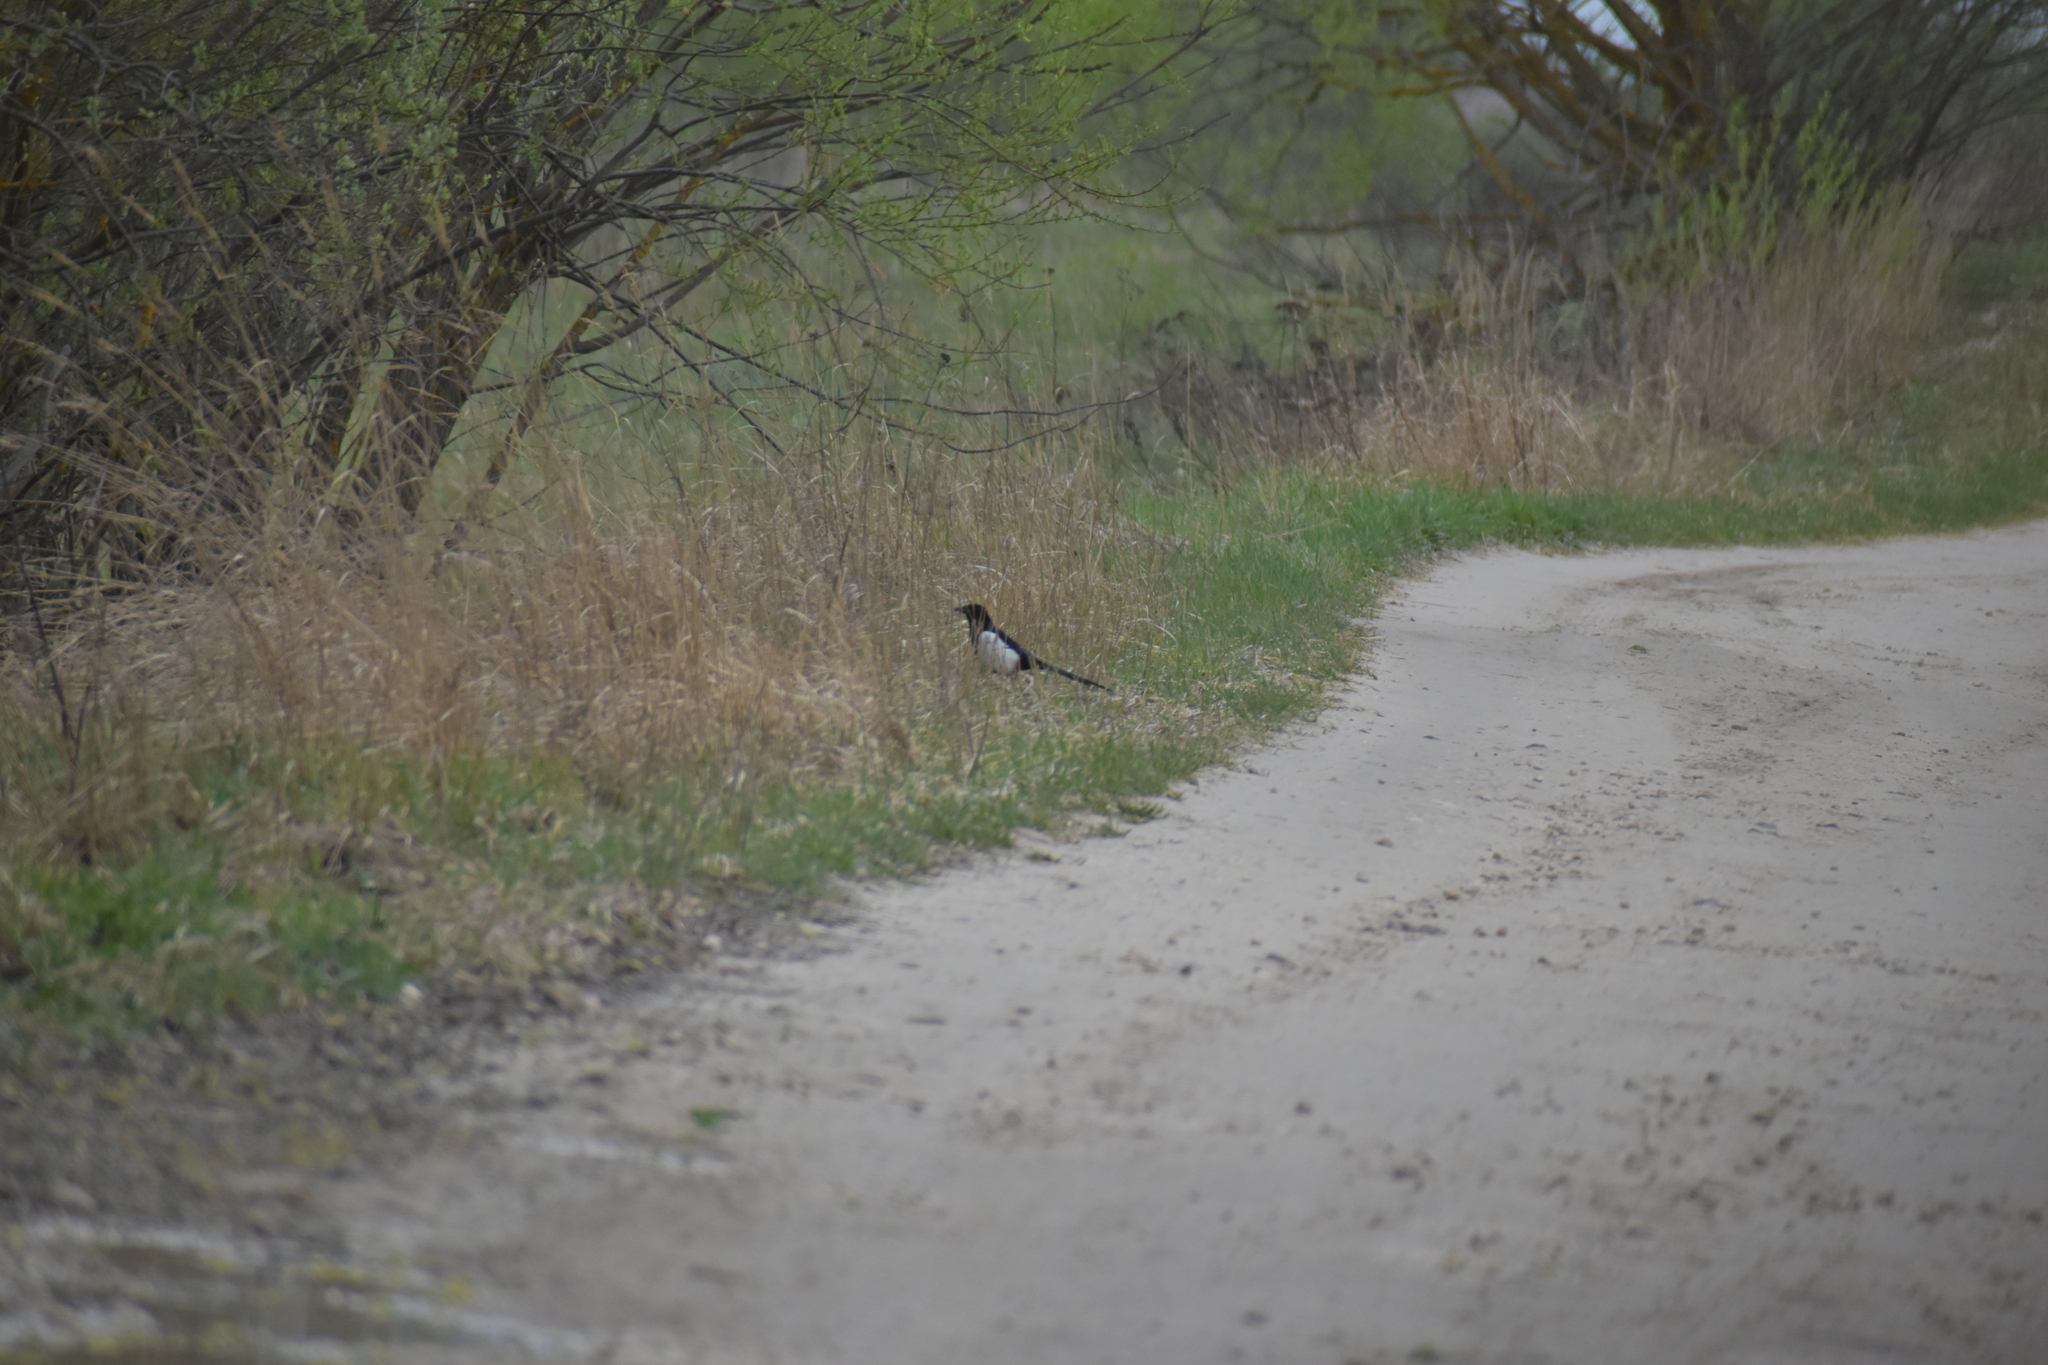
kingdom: Animalia
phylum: Chordata
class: Aves
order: Passeriformes
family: Corvidae
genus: Pica
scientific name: Pica pica
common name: Eurasian magpie
